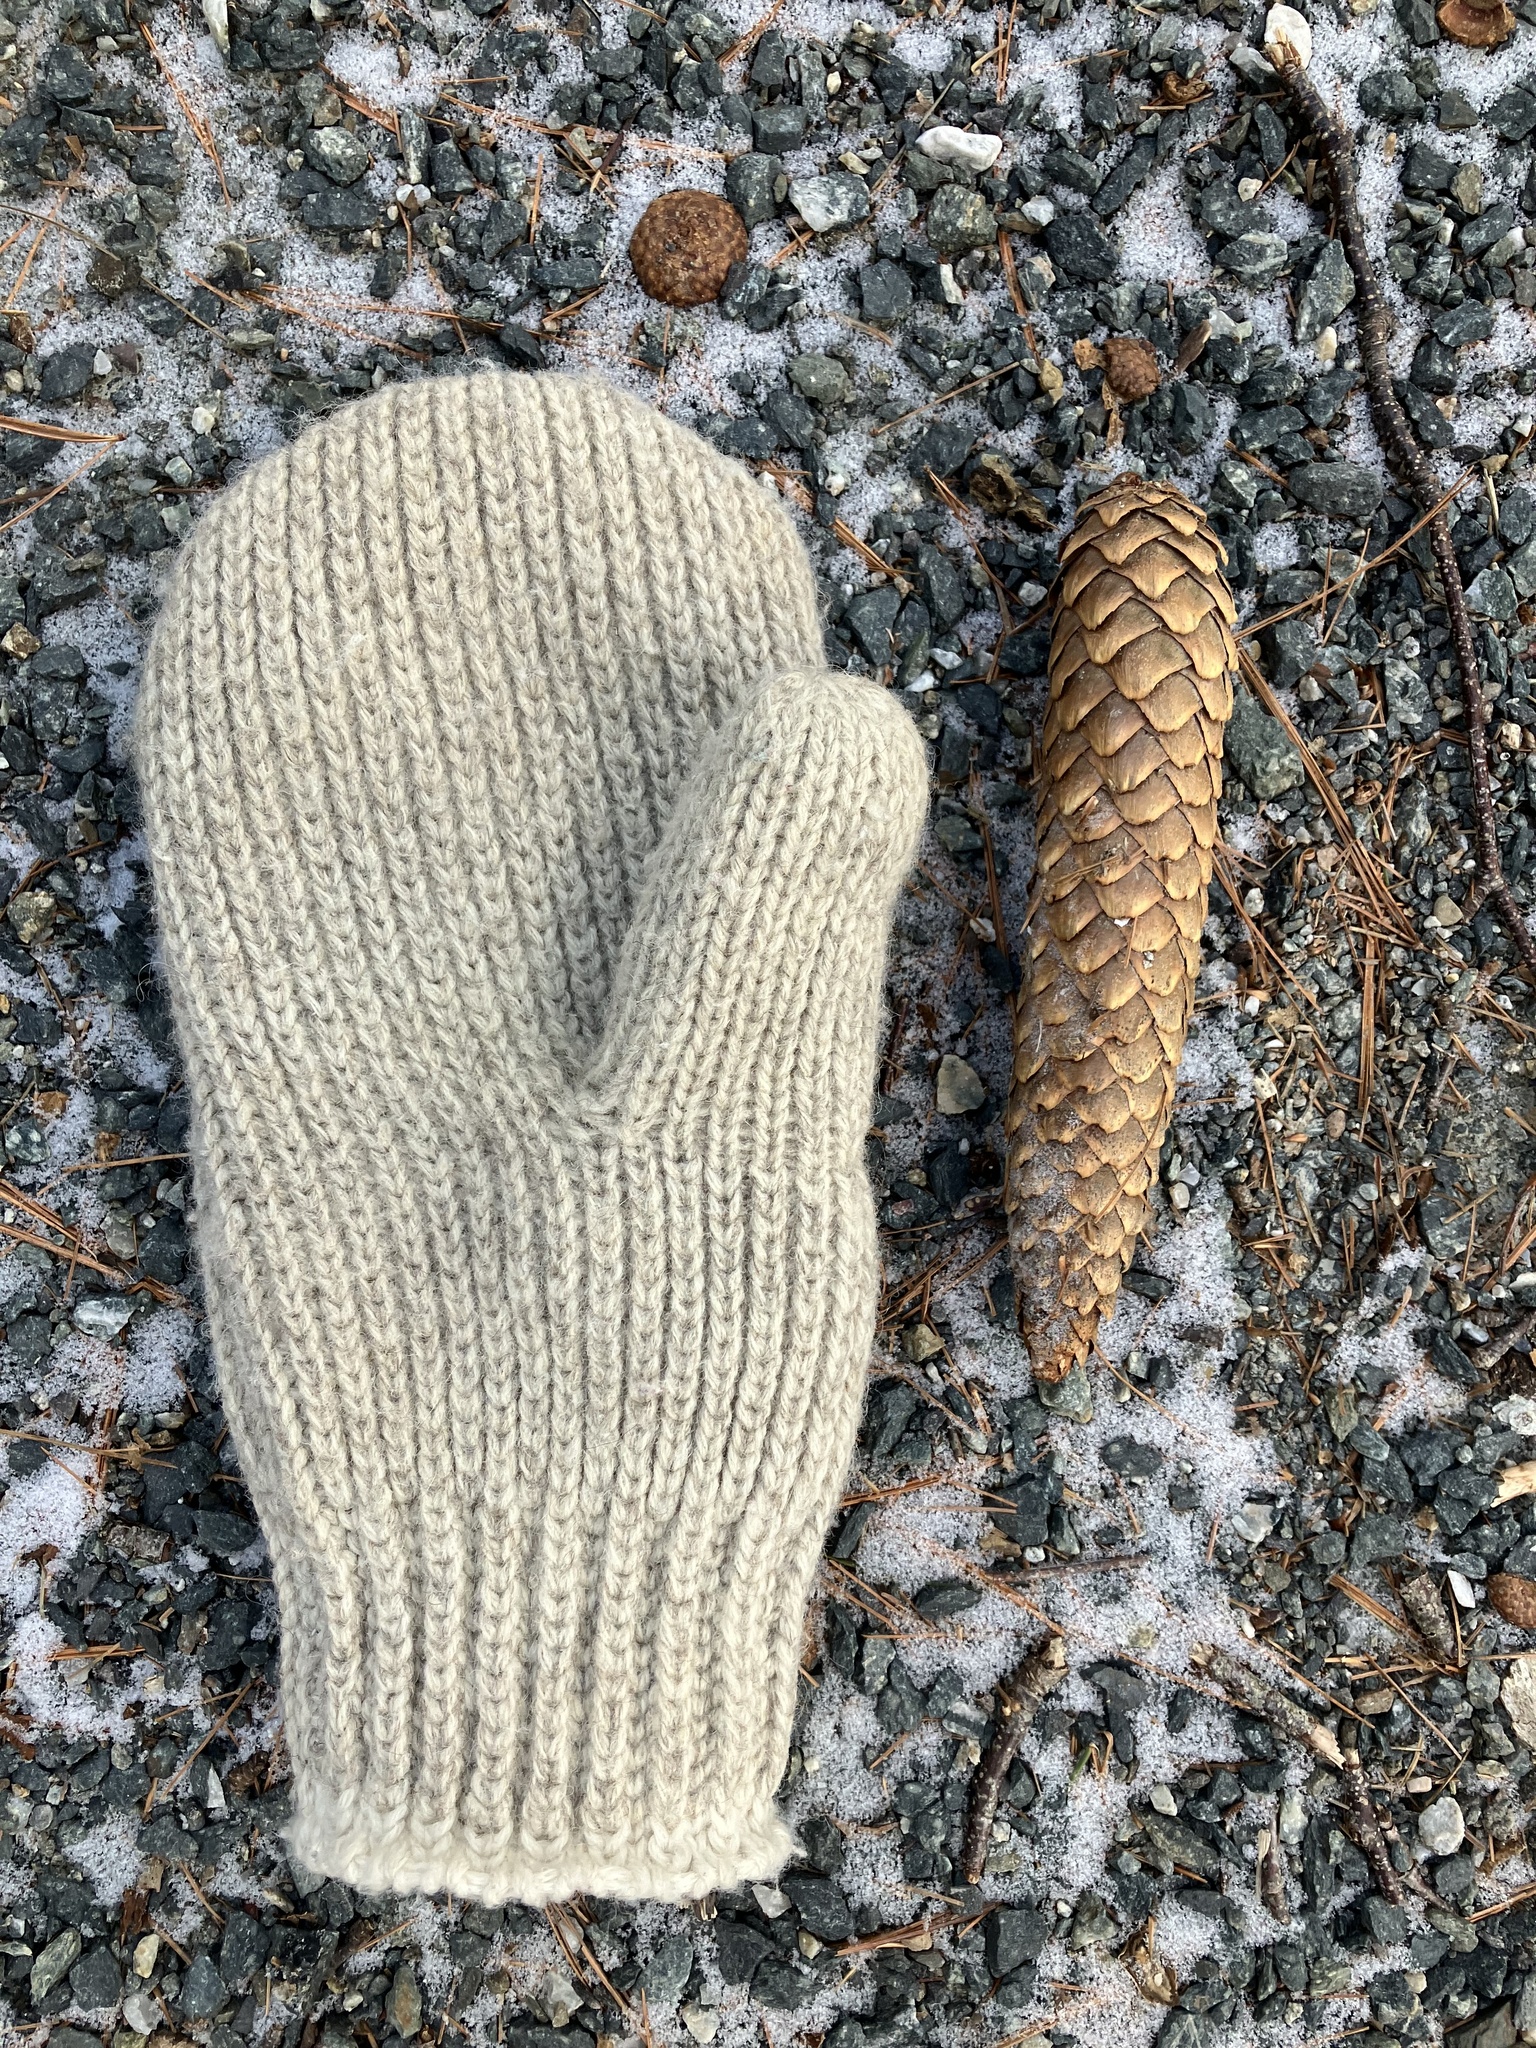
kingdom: Plantae
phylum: Tracheophyta
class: Pinopsida
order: Pinales
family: Pinaceae
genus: Picea
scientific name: Picea abies
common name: Norway spruce
